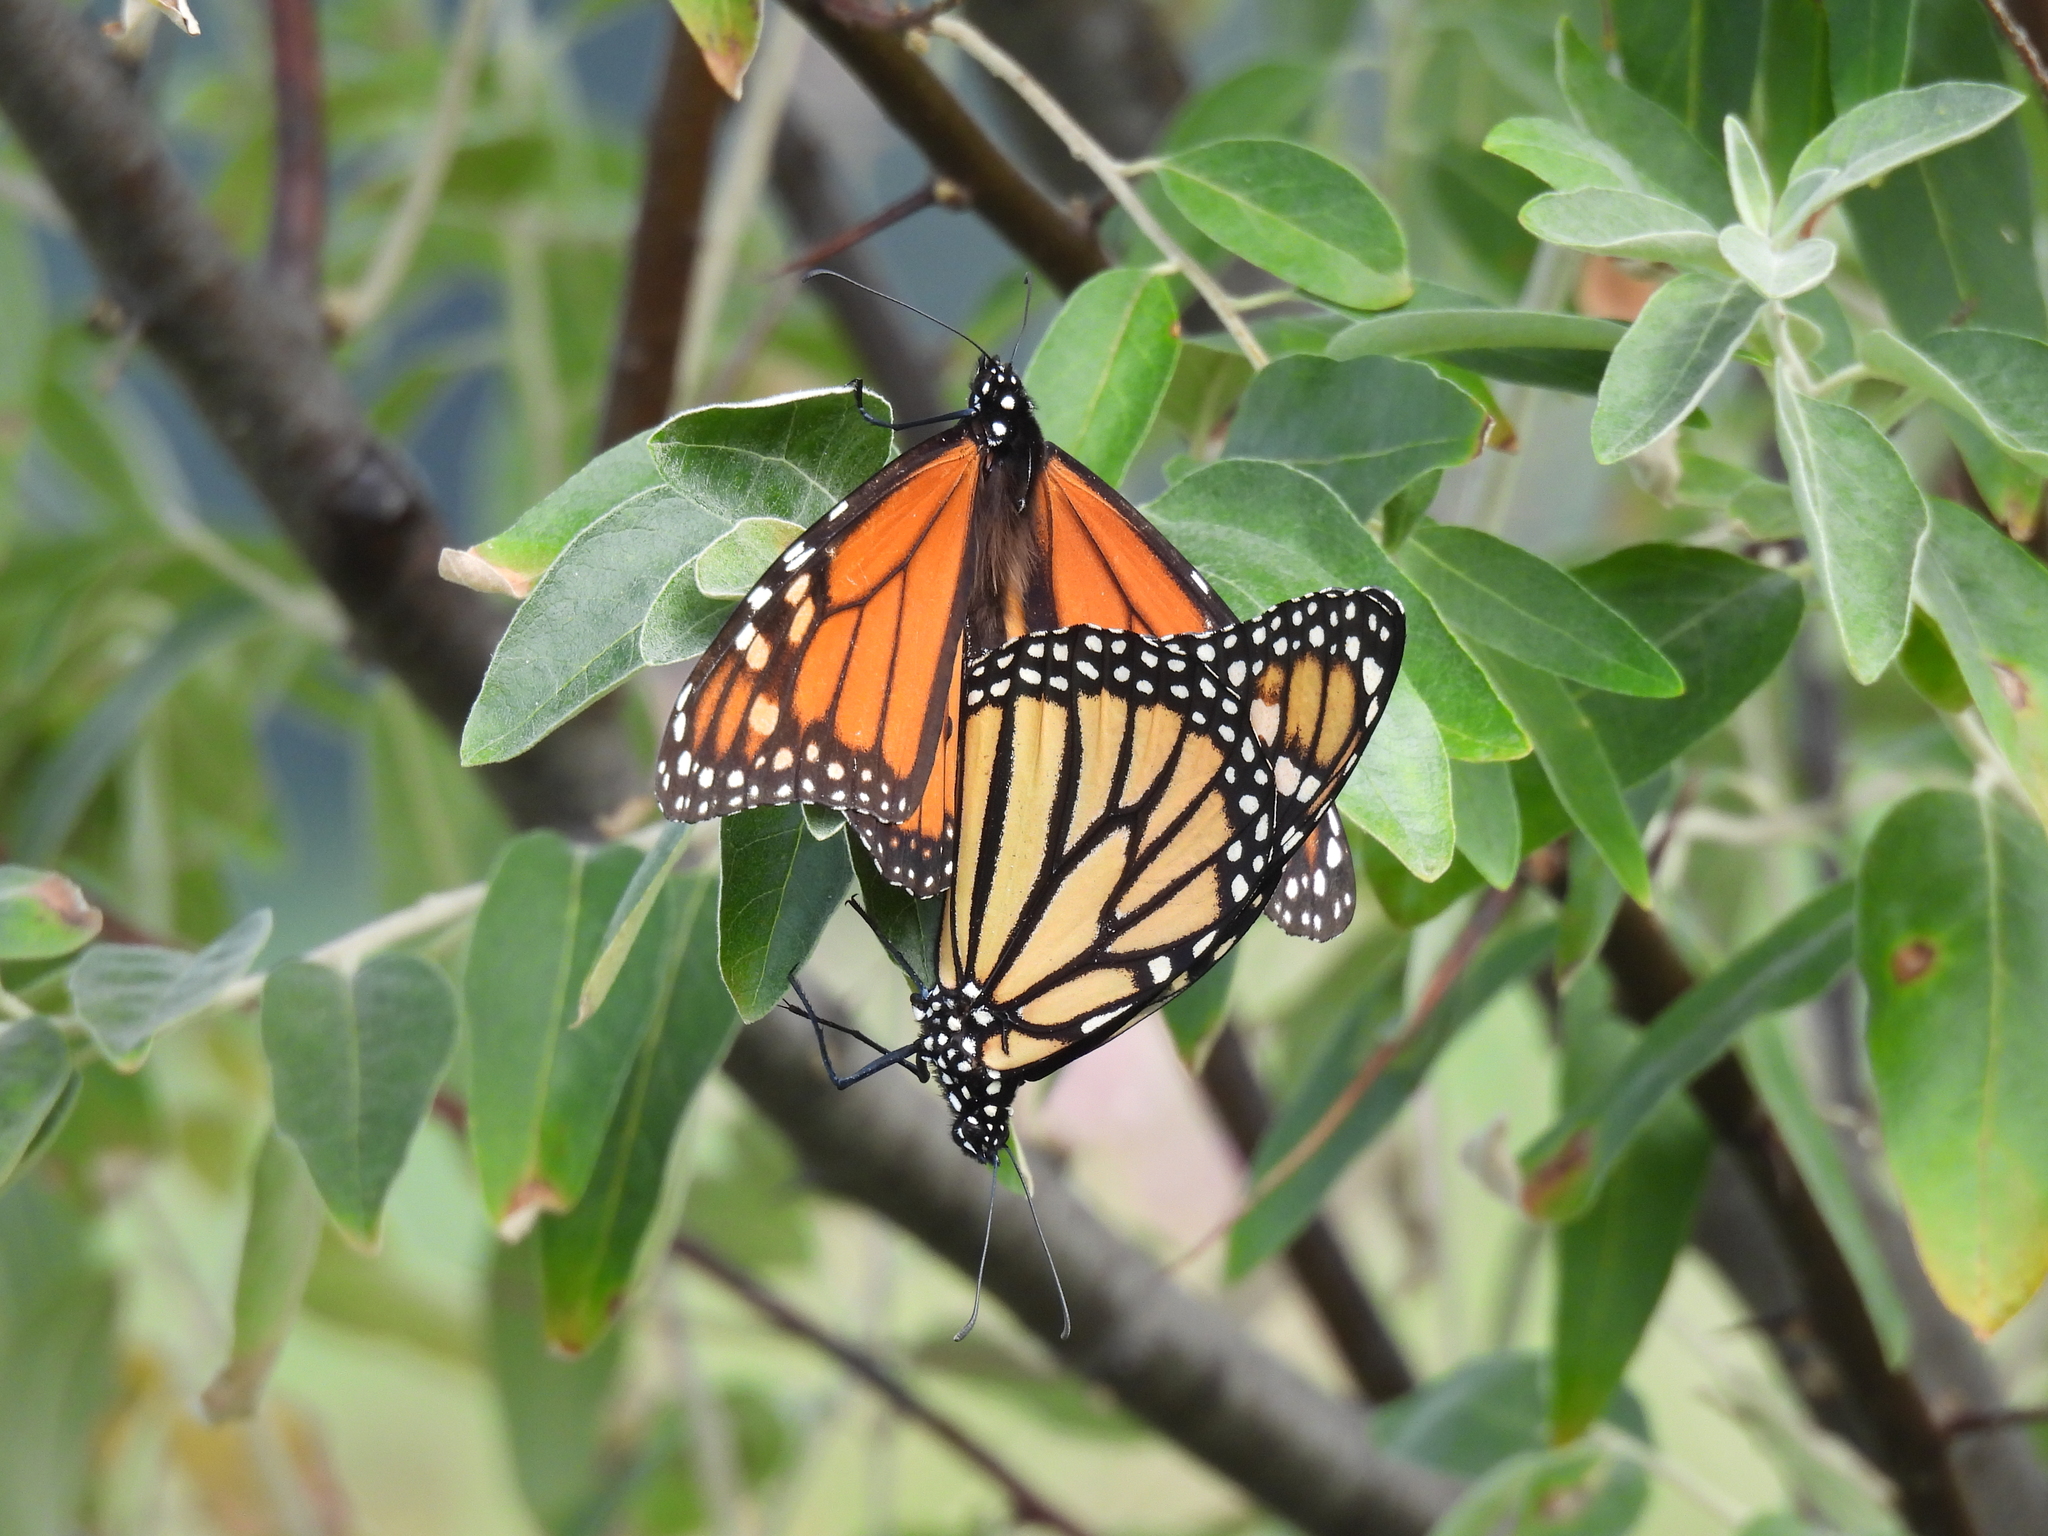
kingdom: Animalia
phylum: Arthropoda
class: Insecta
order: Lepidoptera
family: Nymphalidae
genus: Danaus
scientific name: Danaus plexippus
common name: Monarch
